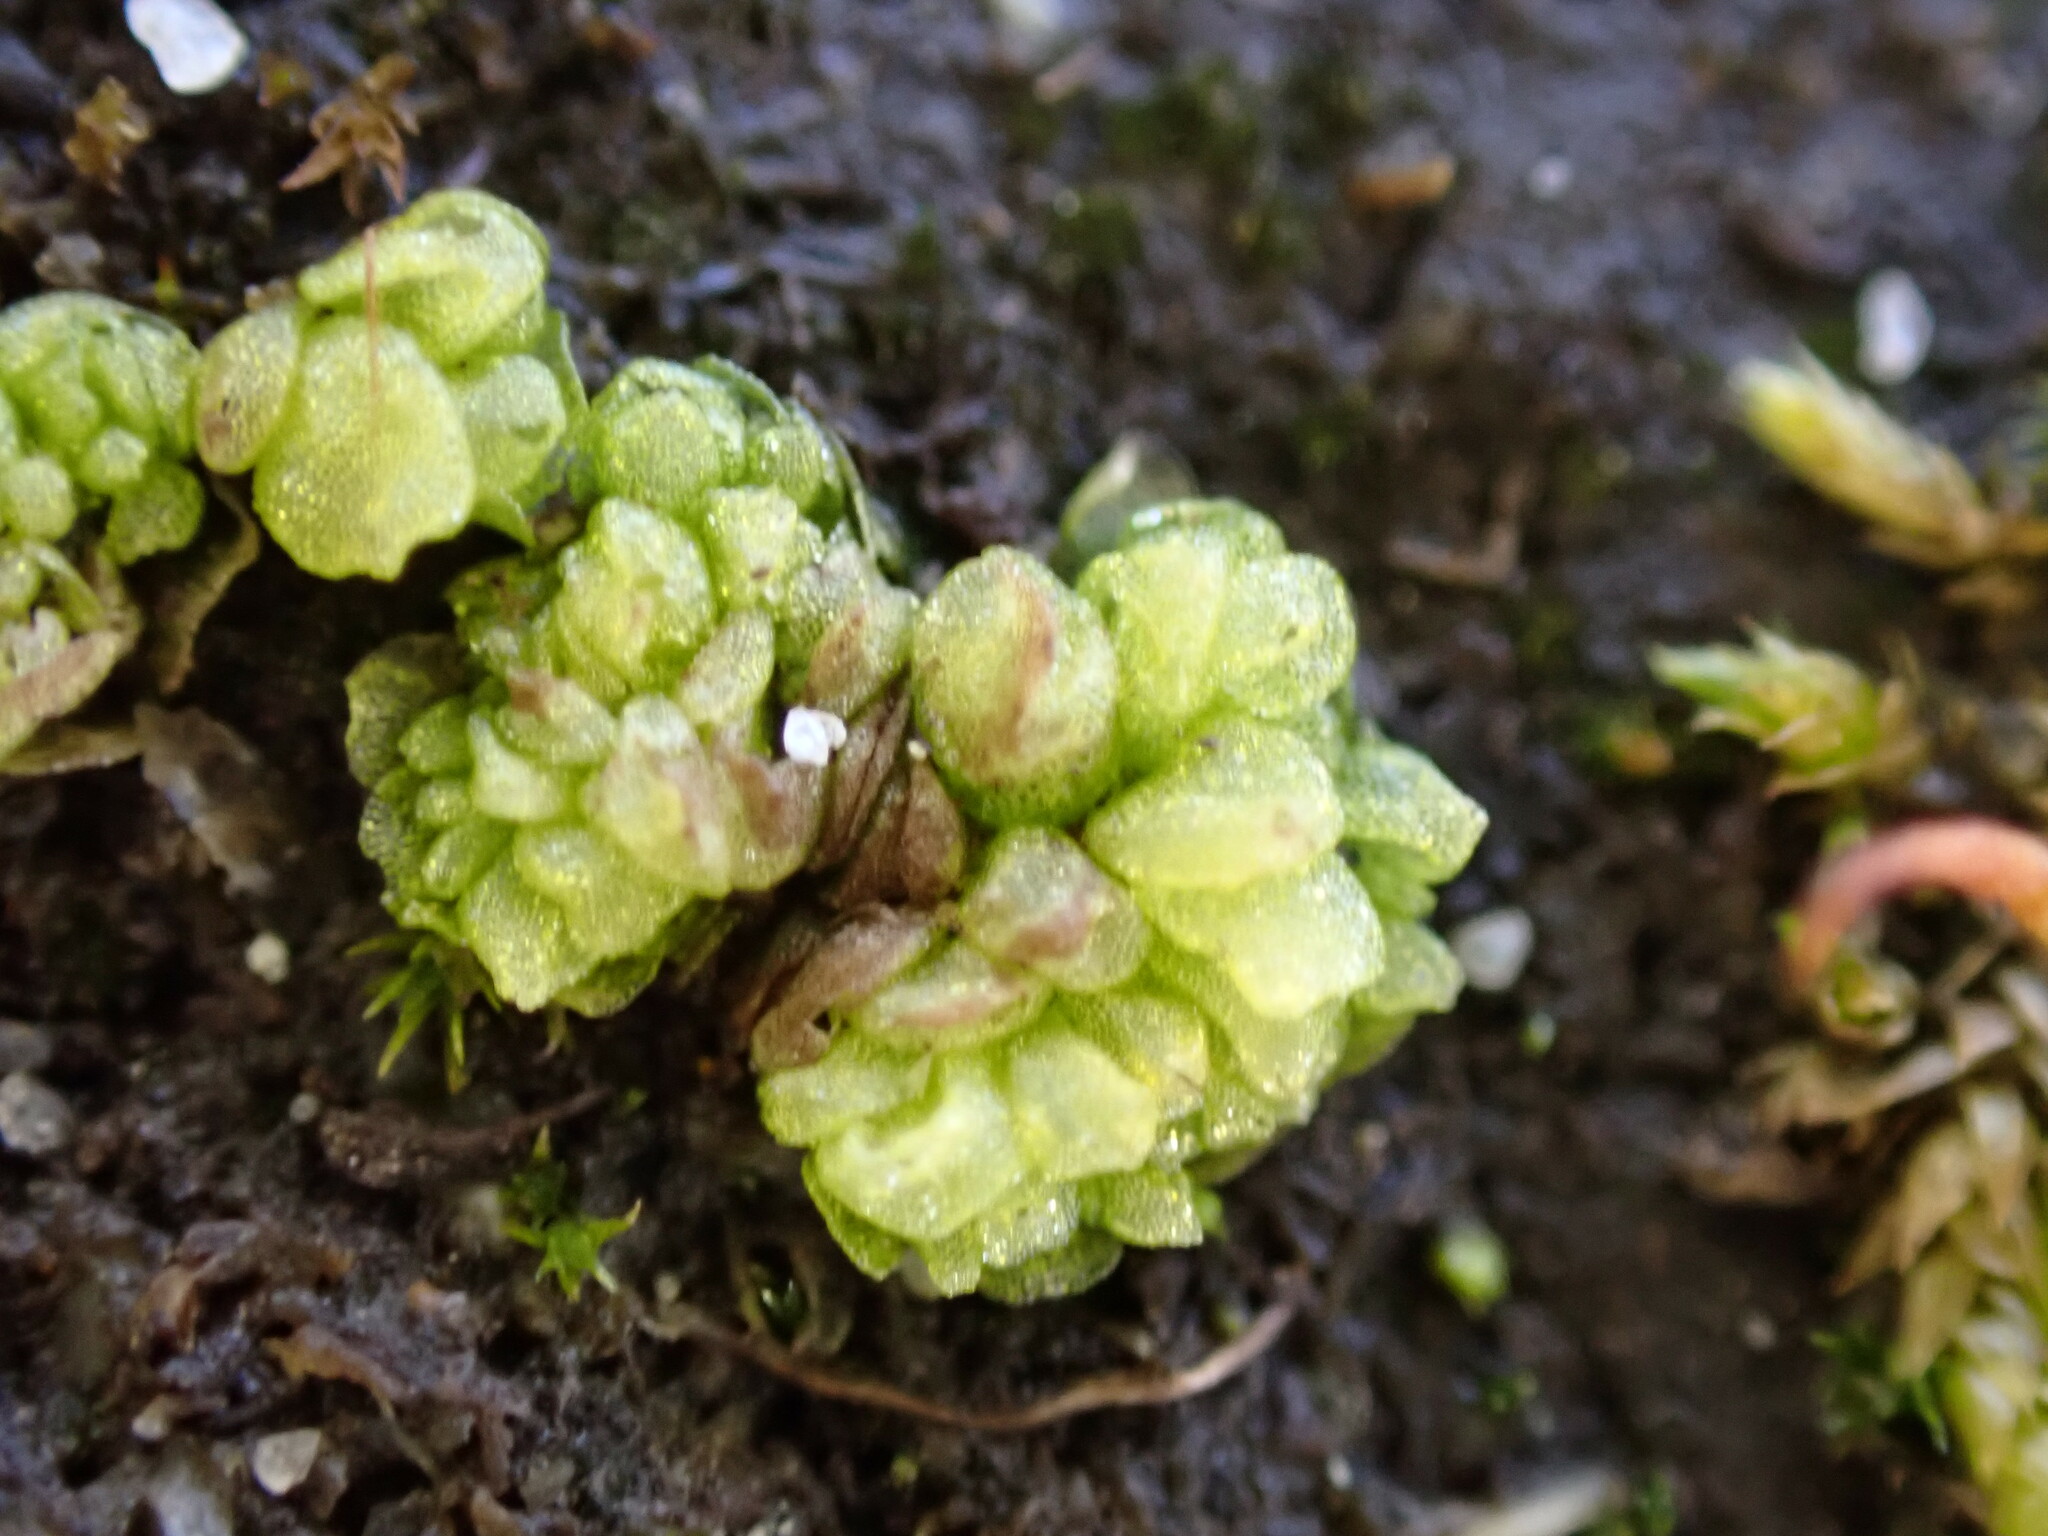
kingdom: Plantae
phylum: Marchantiophyta
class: Marchantiopsida
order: Sphaerocarpales
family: Sphaerocarpaceae
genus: Sphaerocarpos
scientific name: Sphaerocarpos texanus
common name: Texas balloonwort
